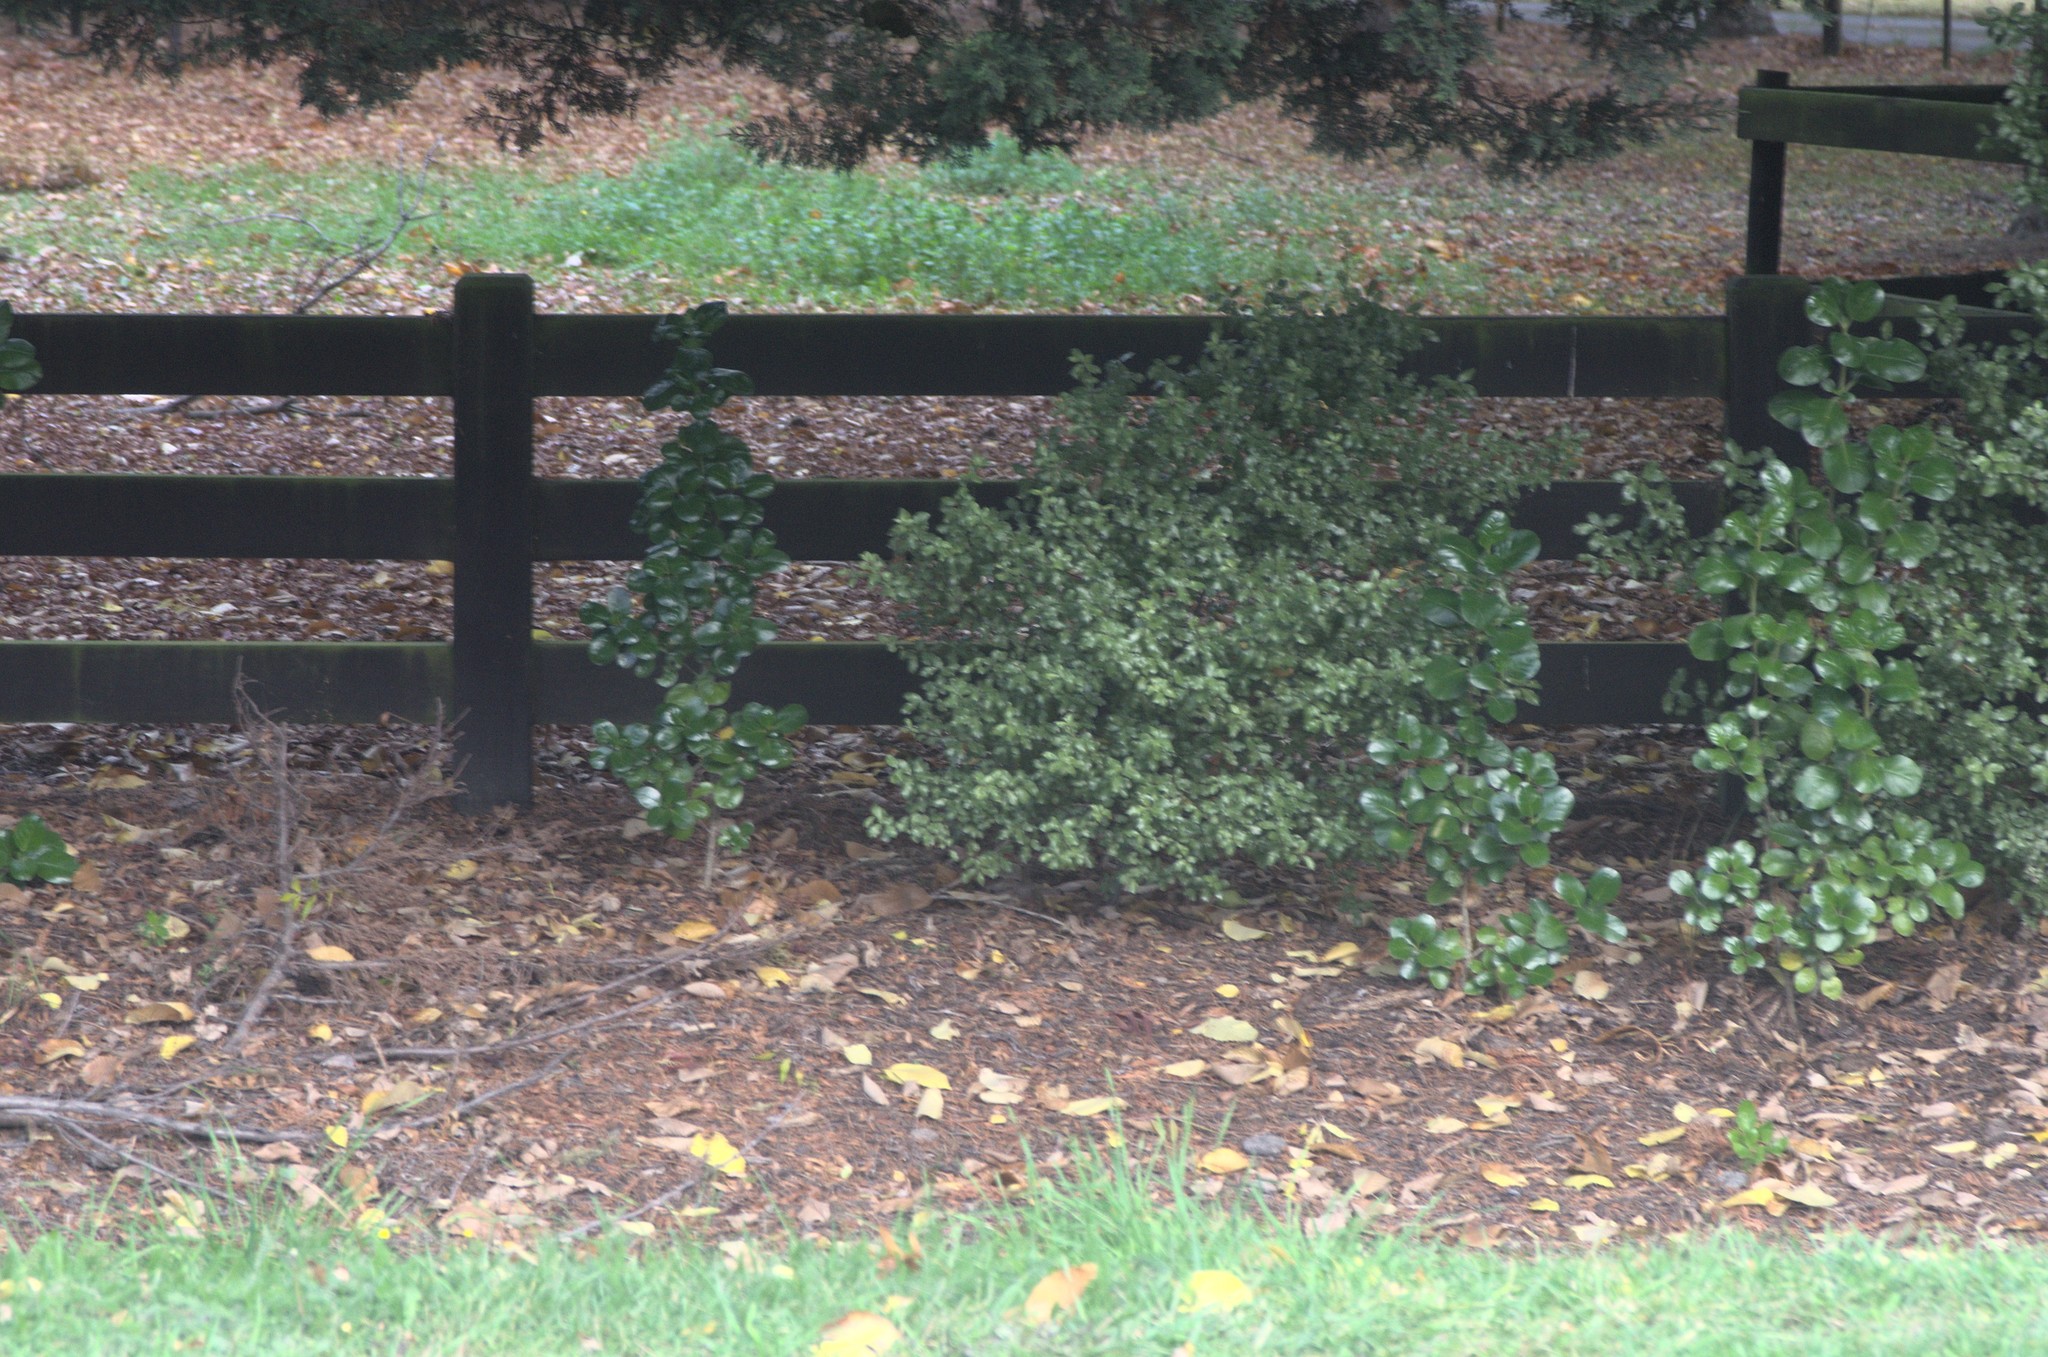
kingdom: Plantae
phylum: Tracheophyta
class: Magnoliopsida
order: Gentianales
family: Rubiaceae
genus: Coprosma
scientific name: Coprosma repens
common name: Tree bedstraw
